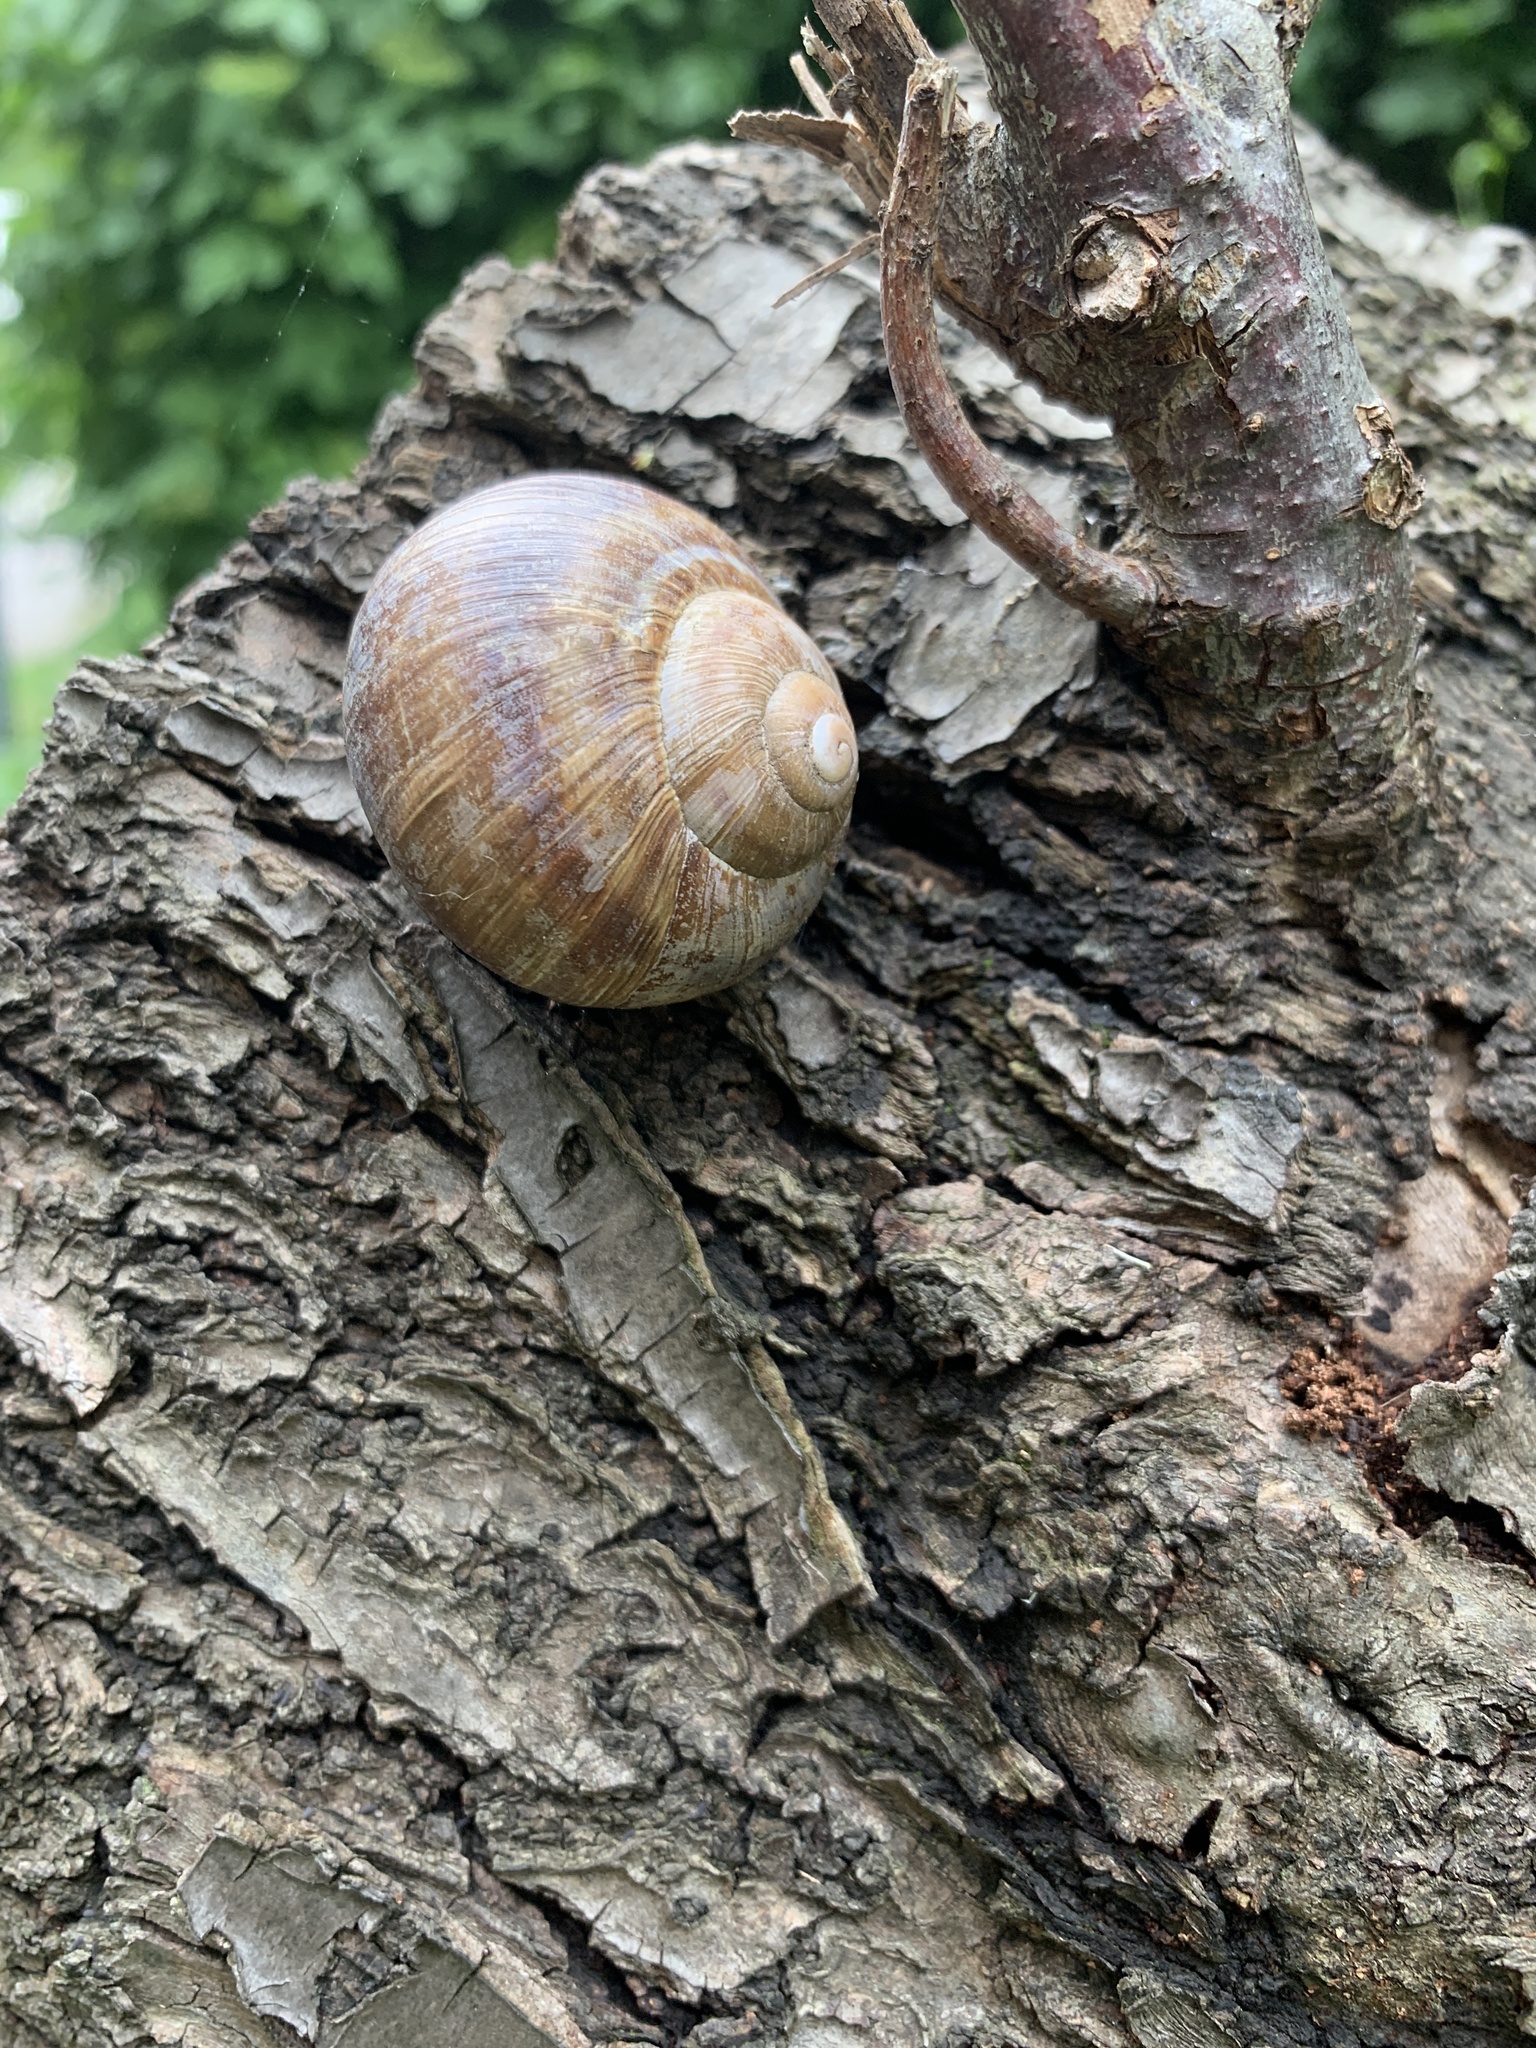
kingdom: Animalia
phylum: Mollusca
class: Gastropoda
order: Stylommatophora
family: Helicidae
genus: Helix
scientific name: Helix pomatia
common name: Roman snail
